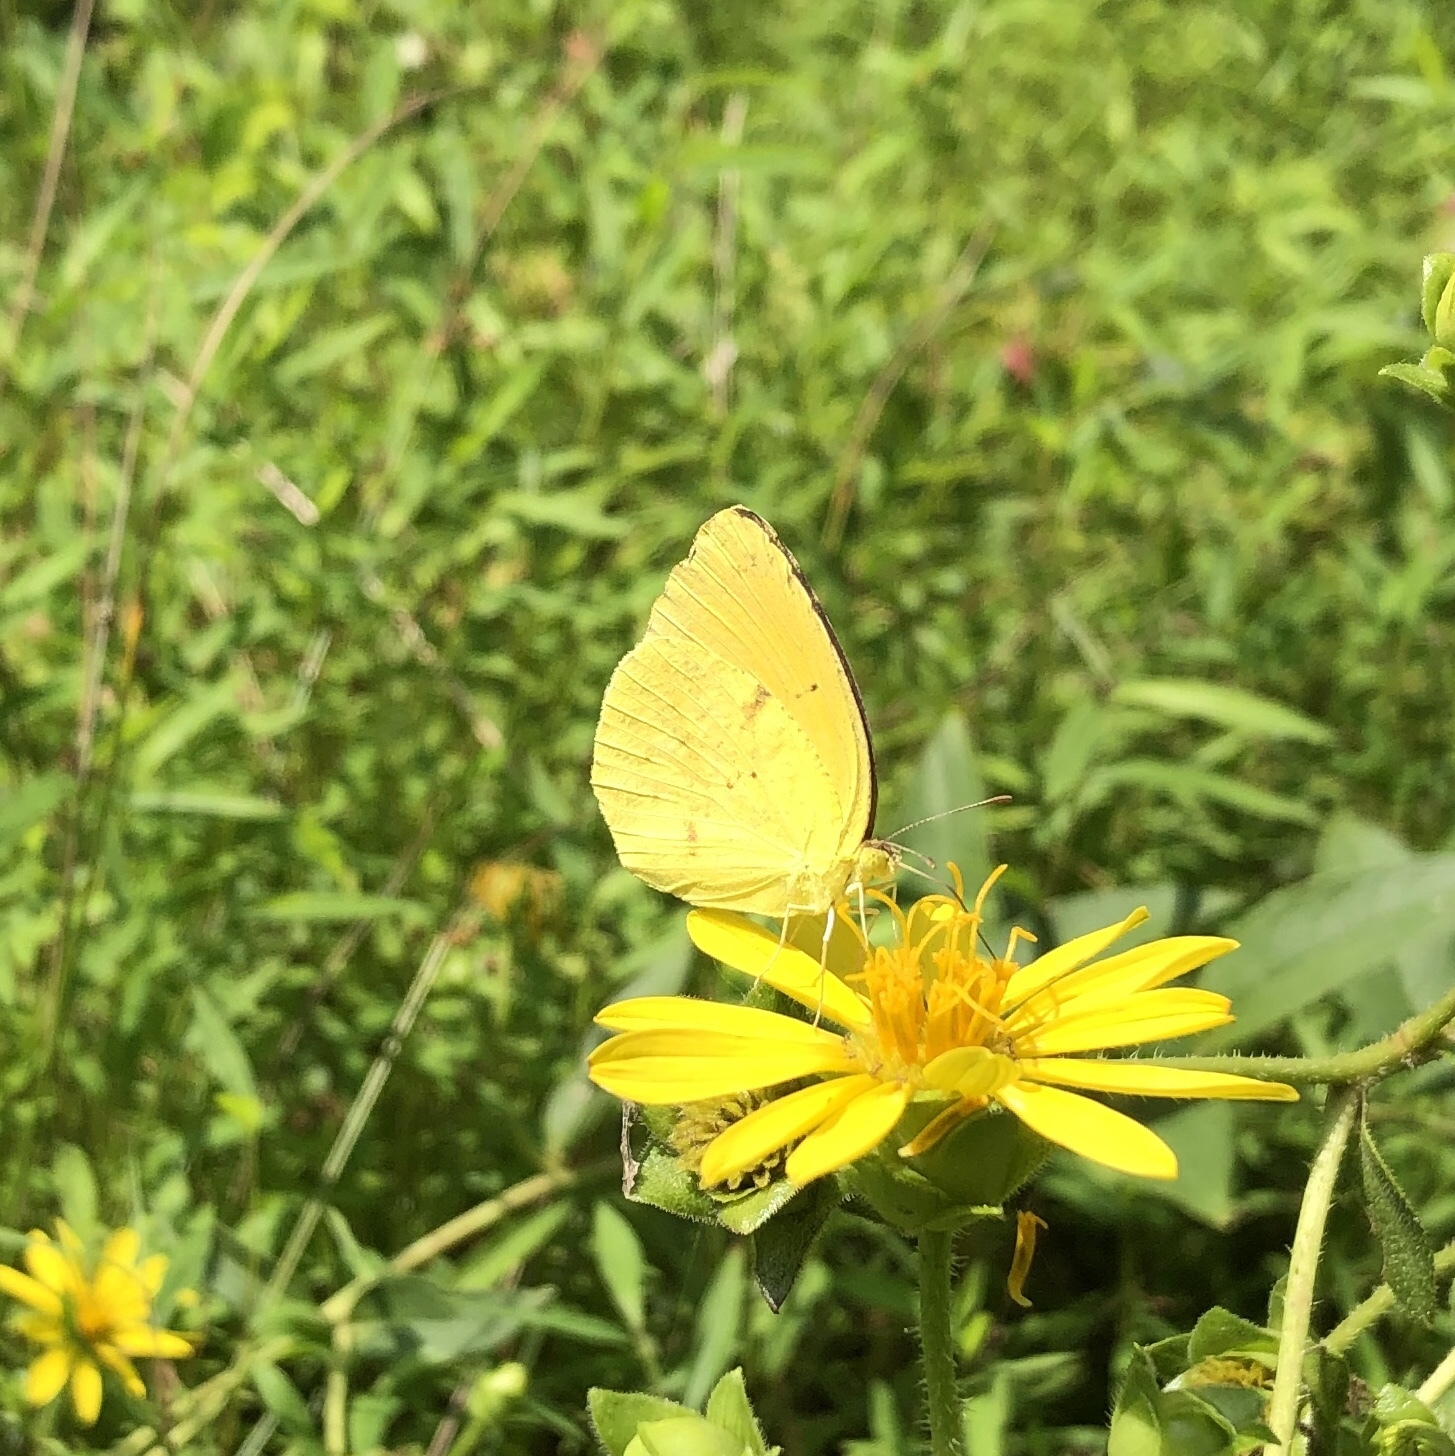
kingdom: Animalia
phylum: Arthropoda
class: Insecta
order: Lepidoptera
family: Pieridae
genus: Abaeis
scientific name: Abaeis nicippe
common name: Sleepy orange
